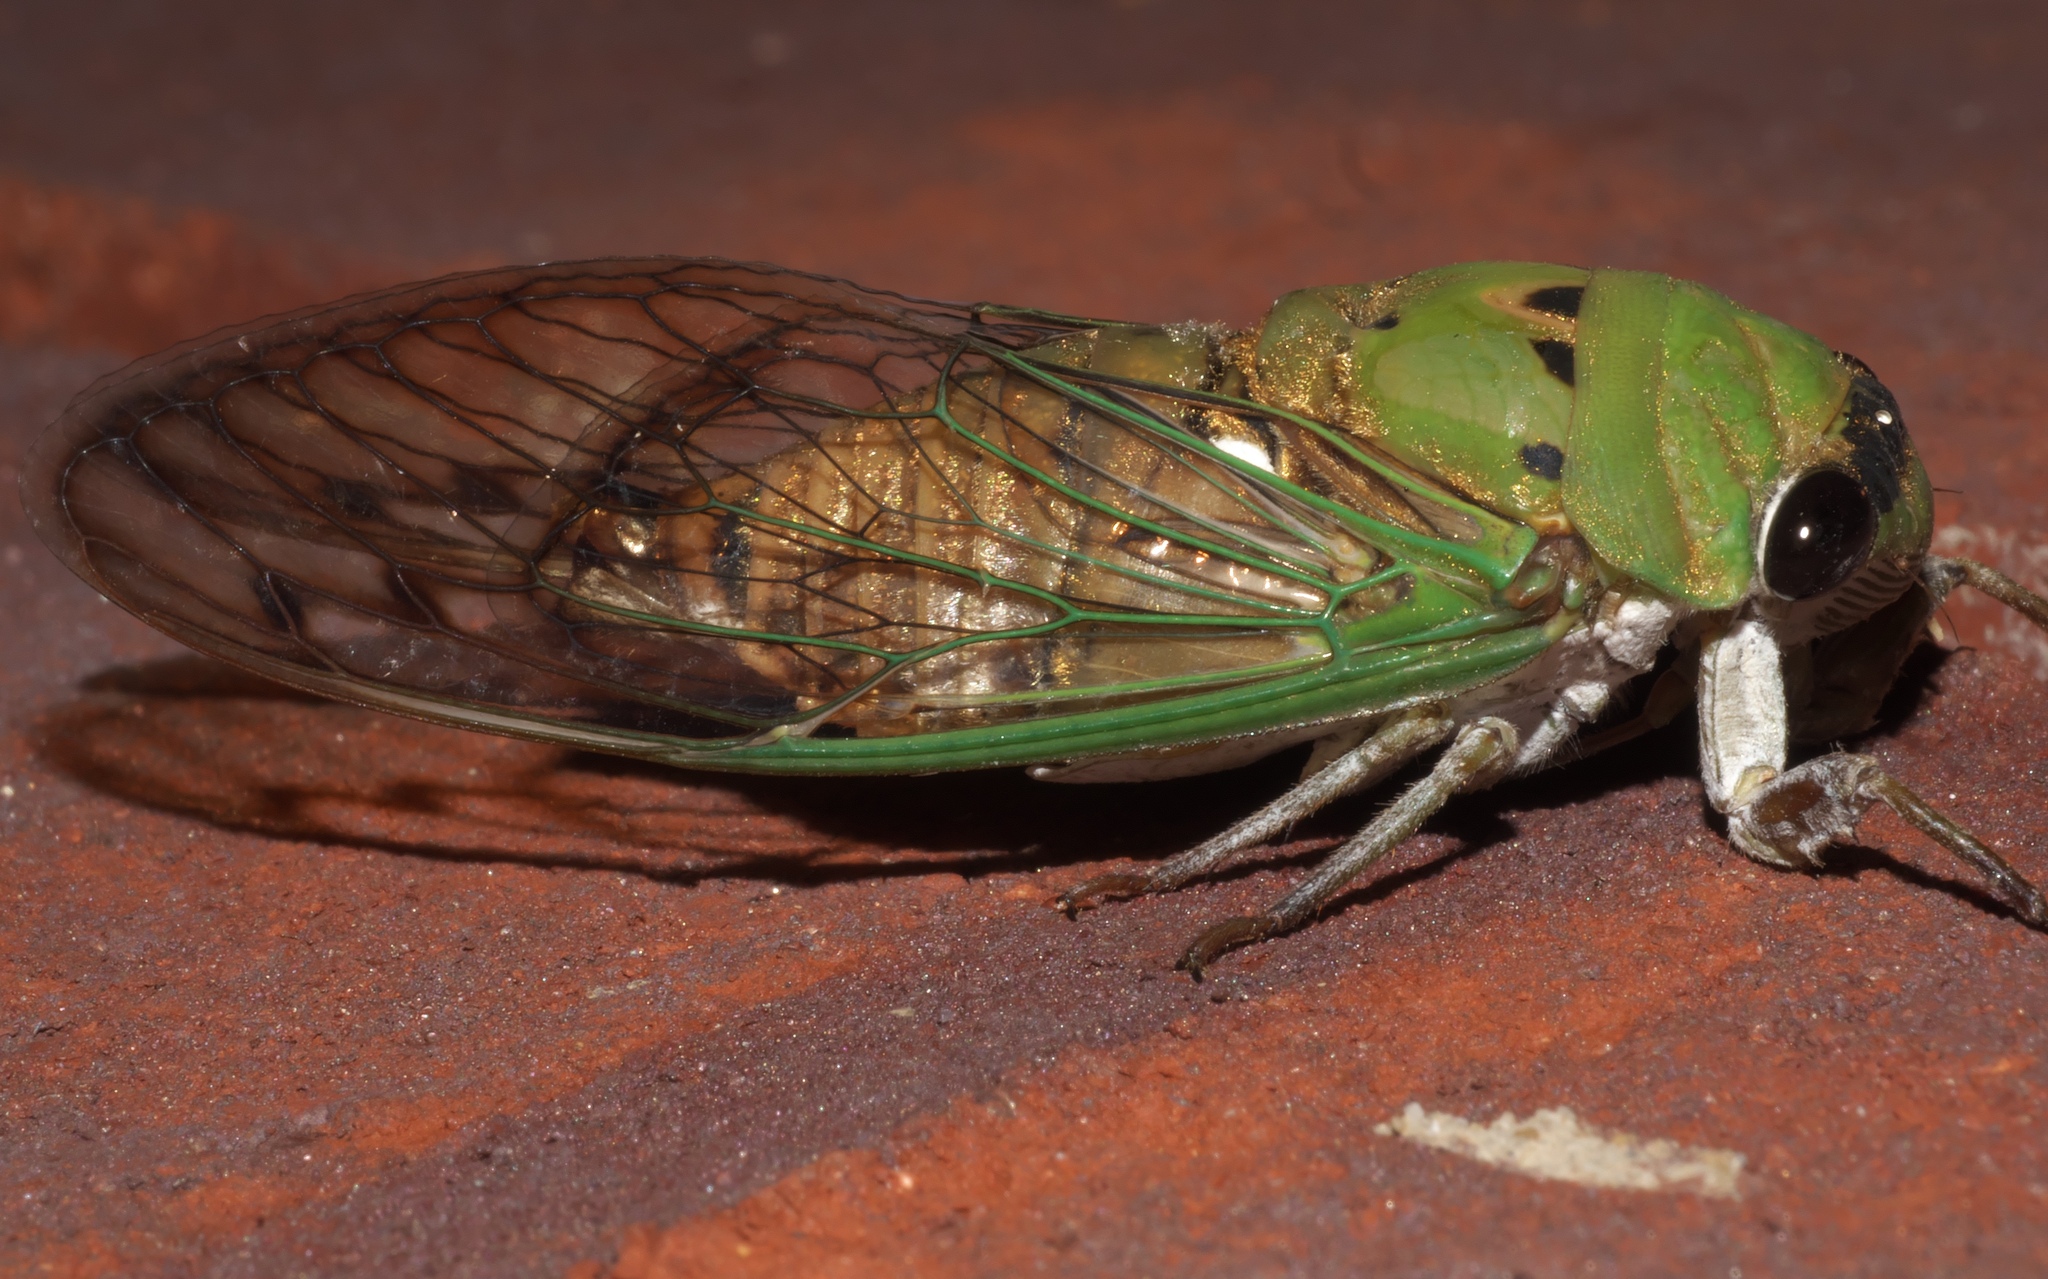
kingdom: Animalia
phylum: Arthropoda
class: Insecta
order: Hemiptera
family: Cicadidae
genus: Neotibicen
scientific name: Neotibicen superbus
